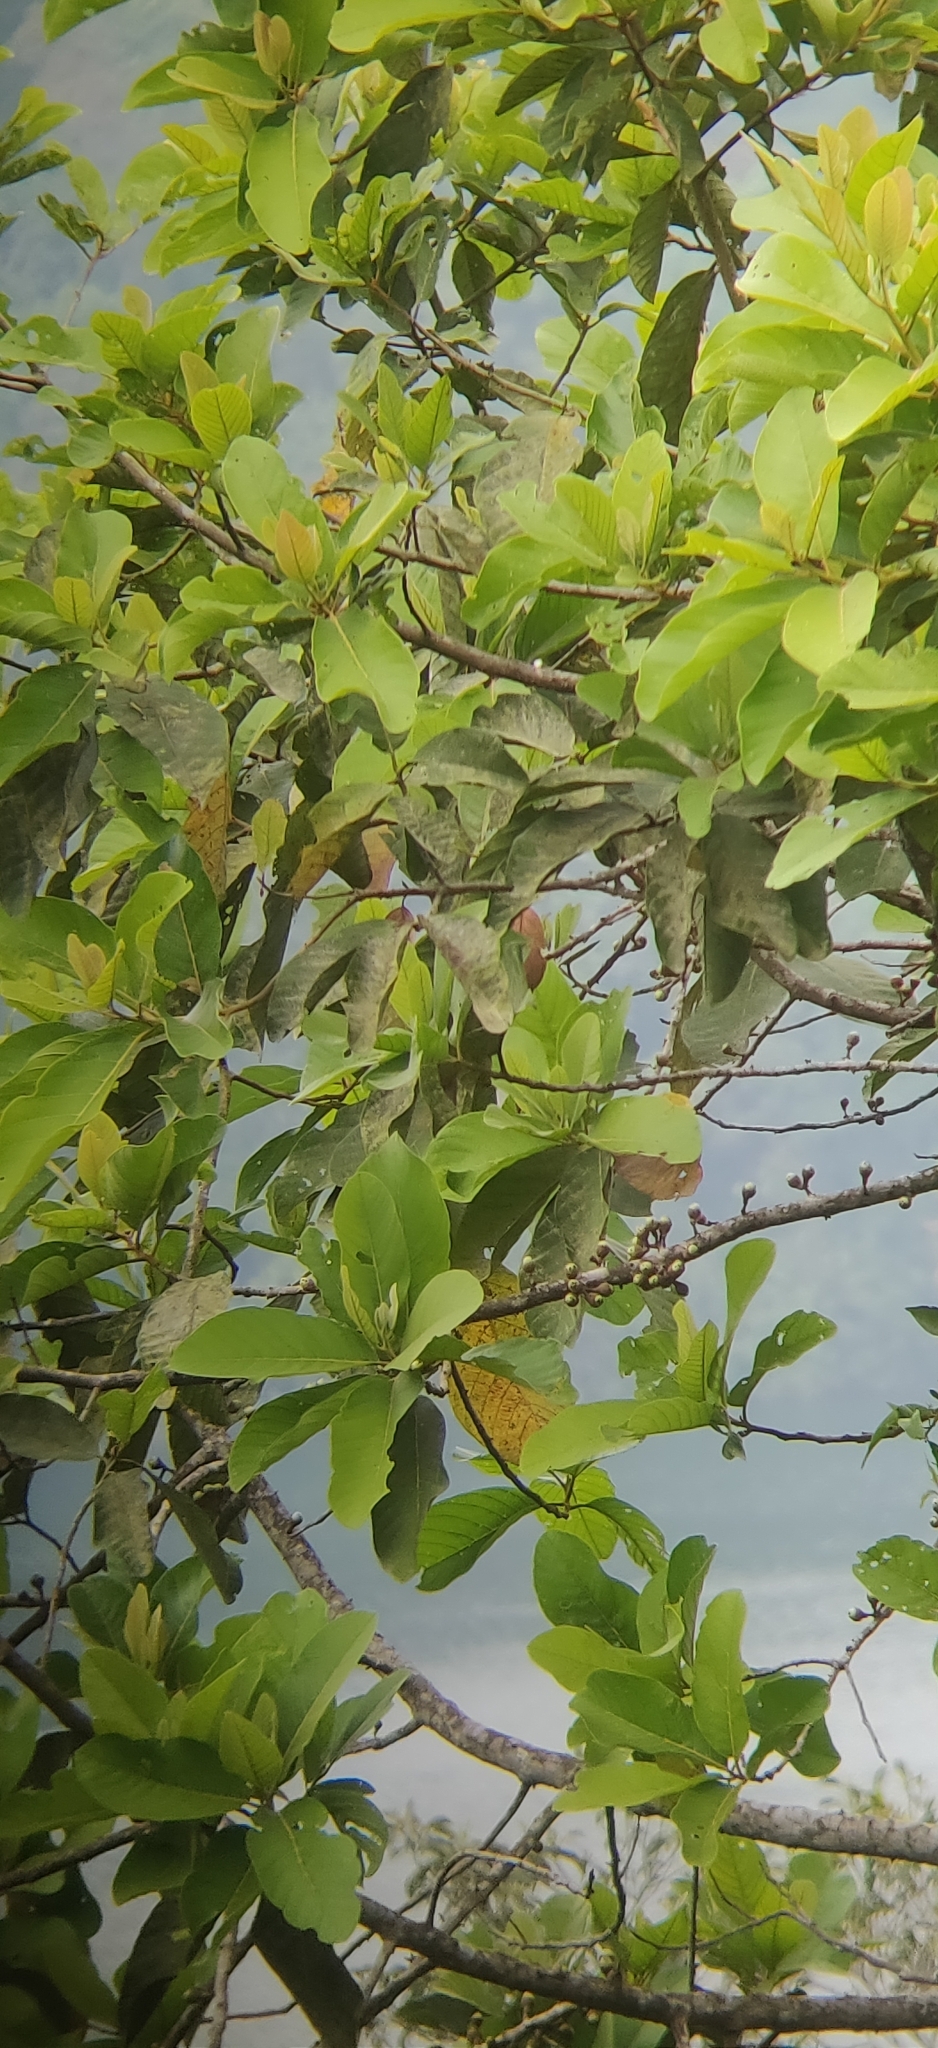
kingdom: Plantae
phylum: Tracheophyta
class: Magnoliopsida
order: Laurales
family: Lauraceae
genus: Litsea
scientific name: Litsea keralana
